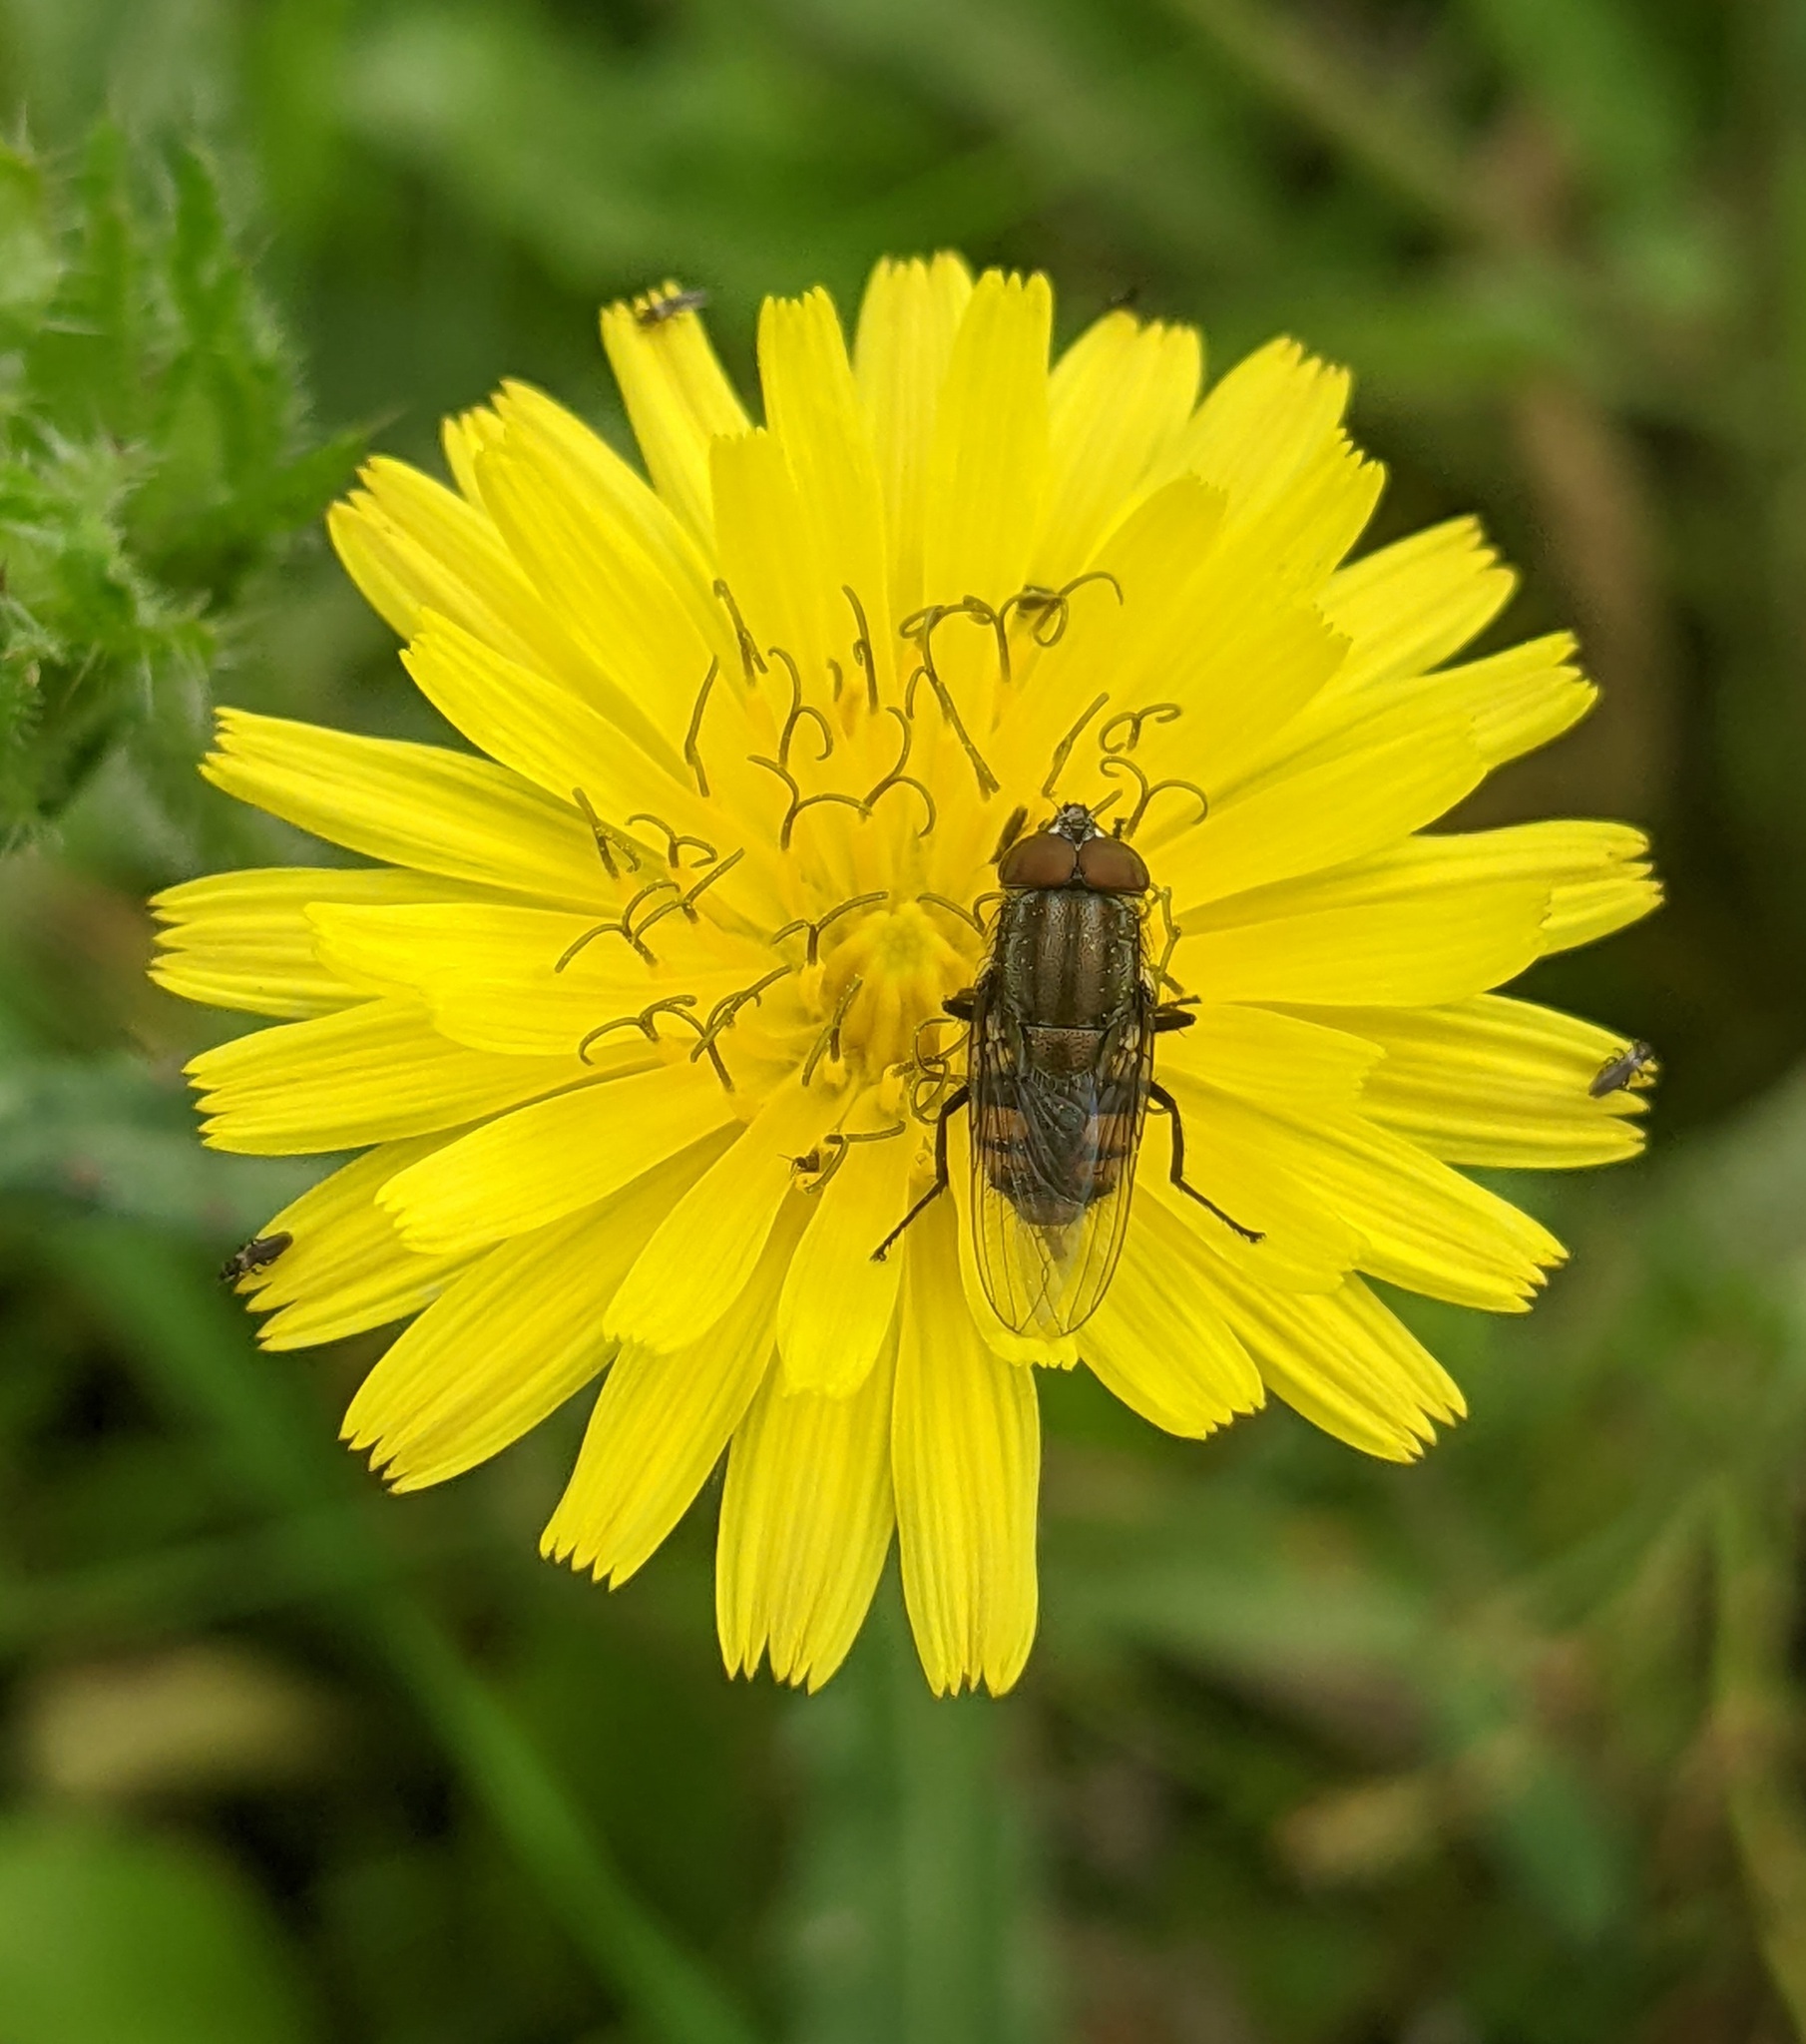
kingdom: Animalia
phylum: Arthropoda
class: Insecta
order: Diptera
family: Calliphoridae
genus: Stomorhina
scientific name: Stomorhina lunata
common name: Locust blowfly
